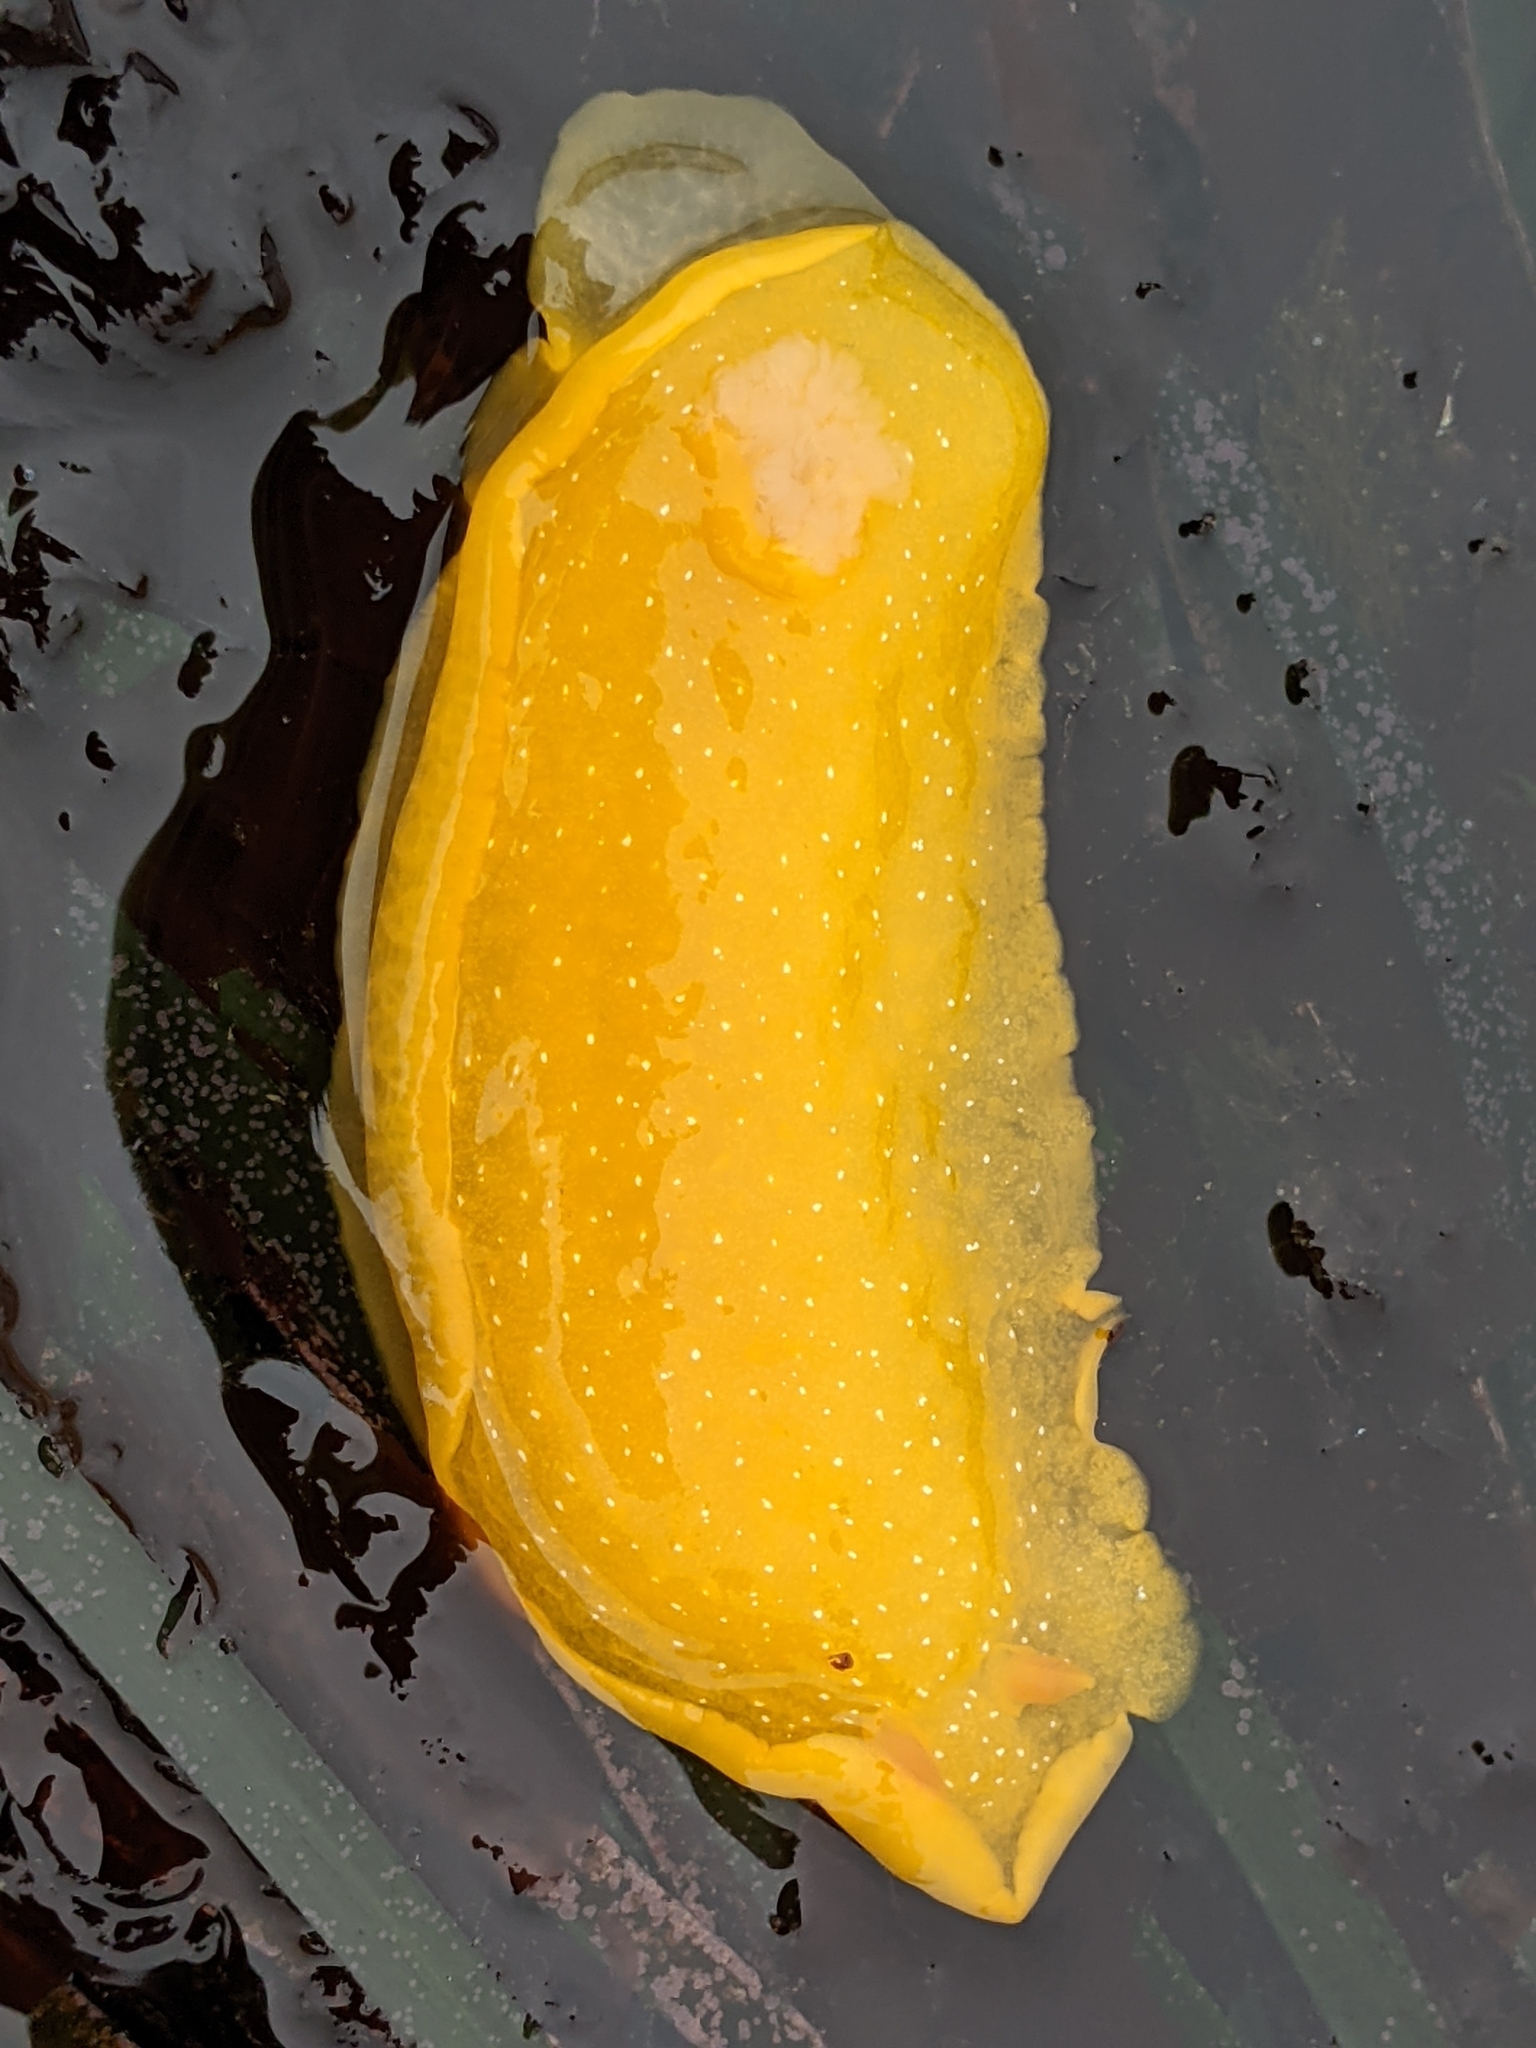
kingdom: Animalia
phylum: Mollusca
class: Gastropoda
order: Nudibranchia
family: Dendrodorididae
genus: Doriopsilla
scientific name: Doriopsilla fulva
